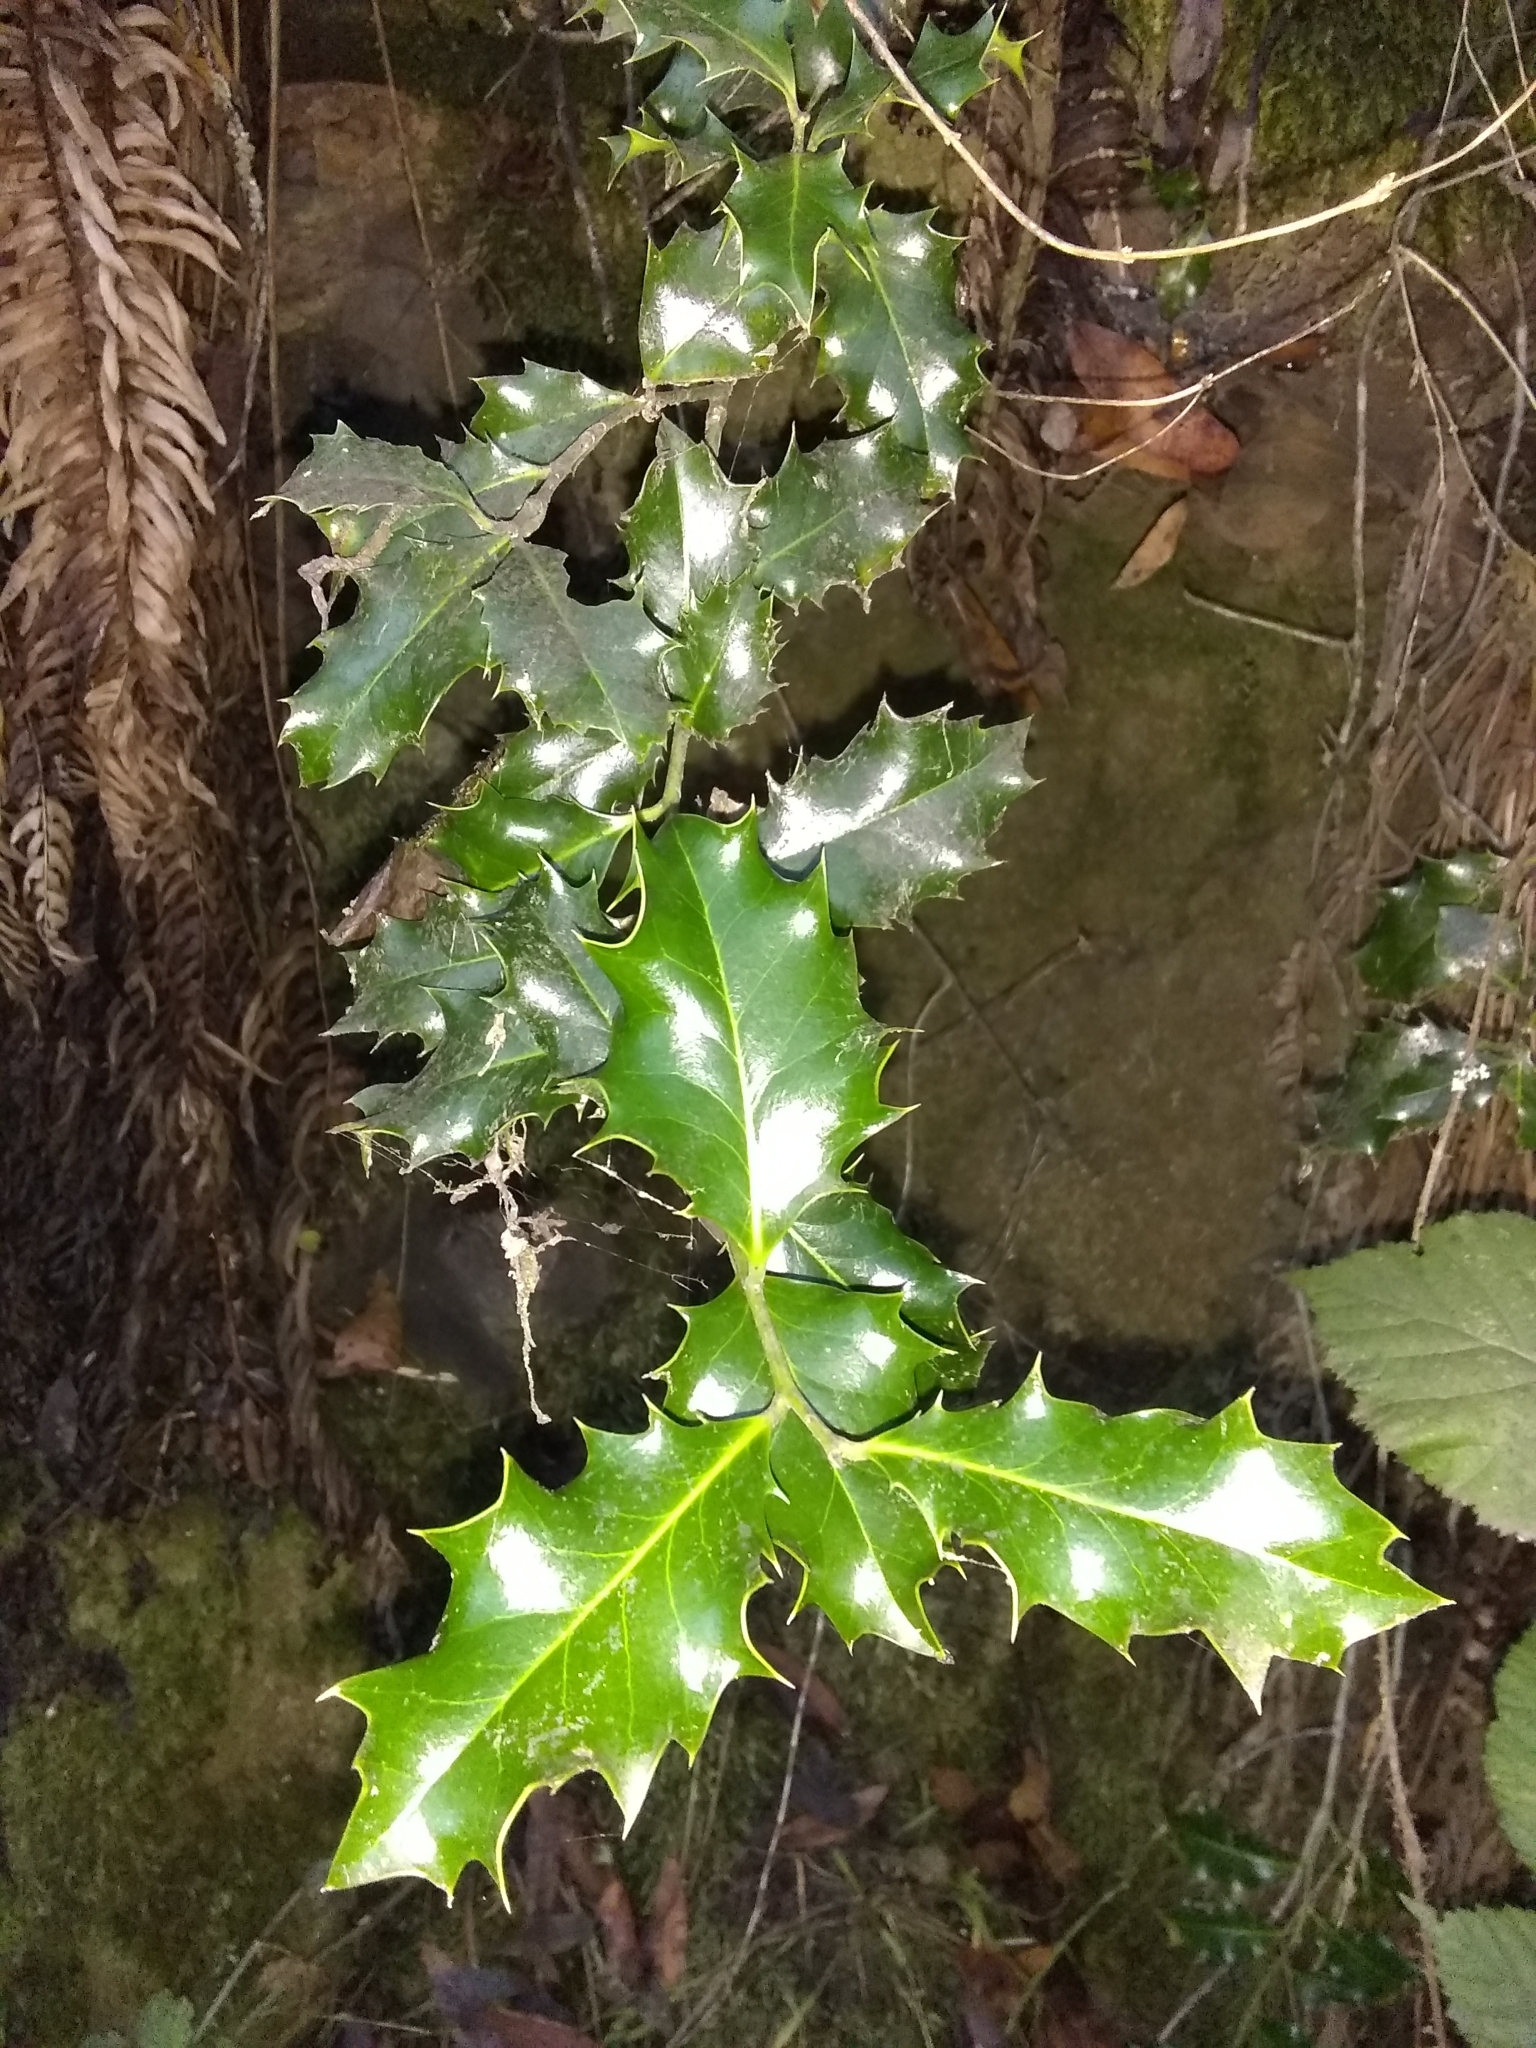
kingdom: Plantae
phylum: Tracheophyta
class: Magnoliopsida
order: Aquifoliales
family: Aquifoliaceae
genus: Ilex
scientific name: Ilex aquifolium
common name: English holly
